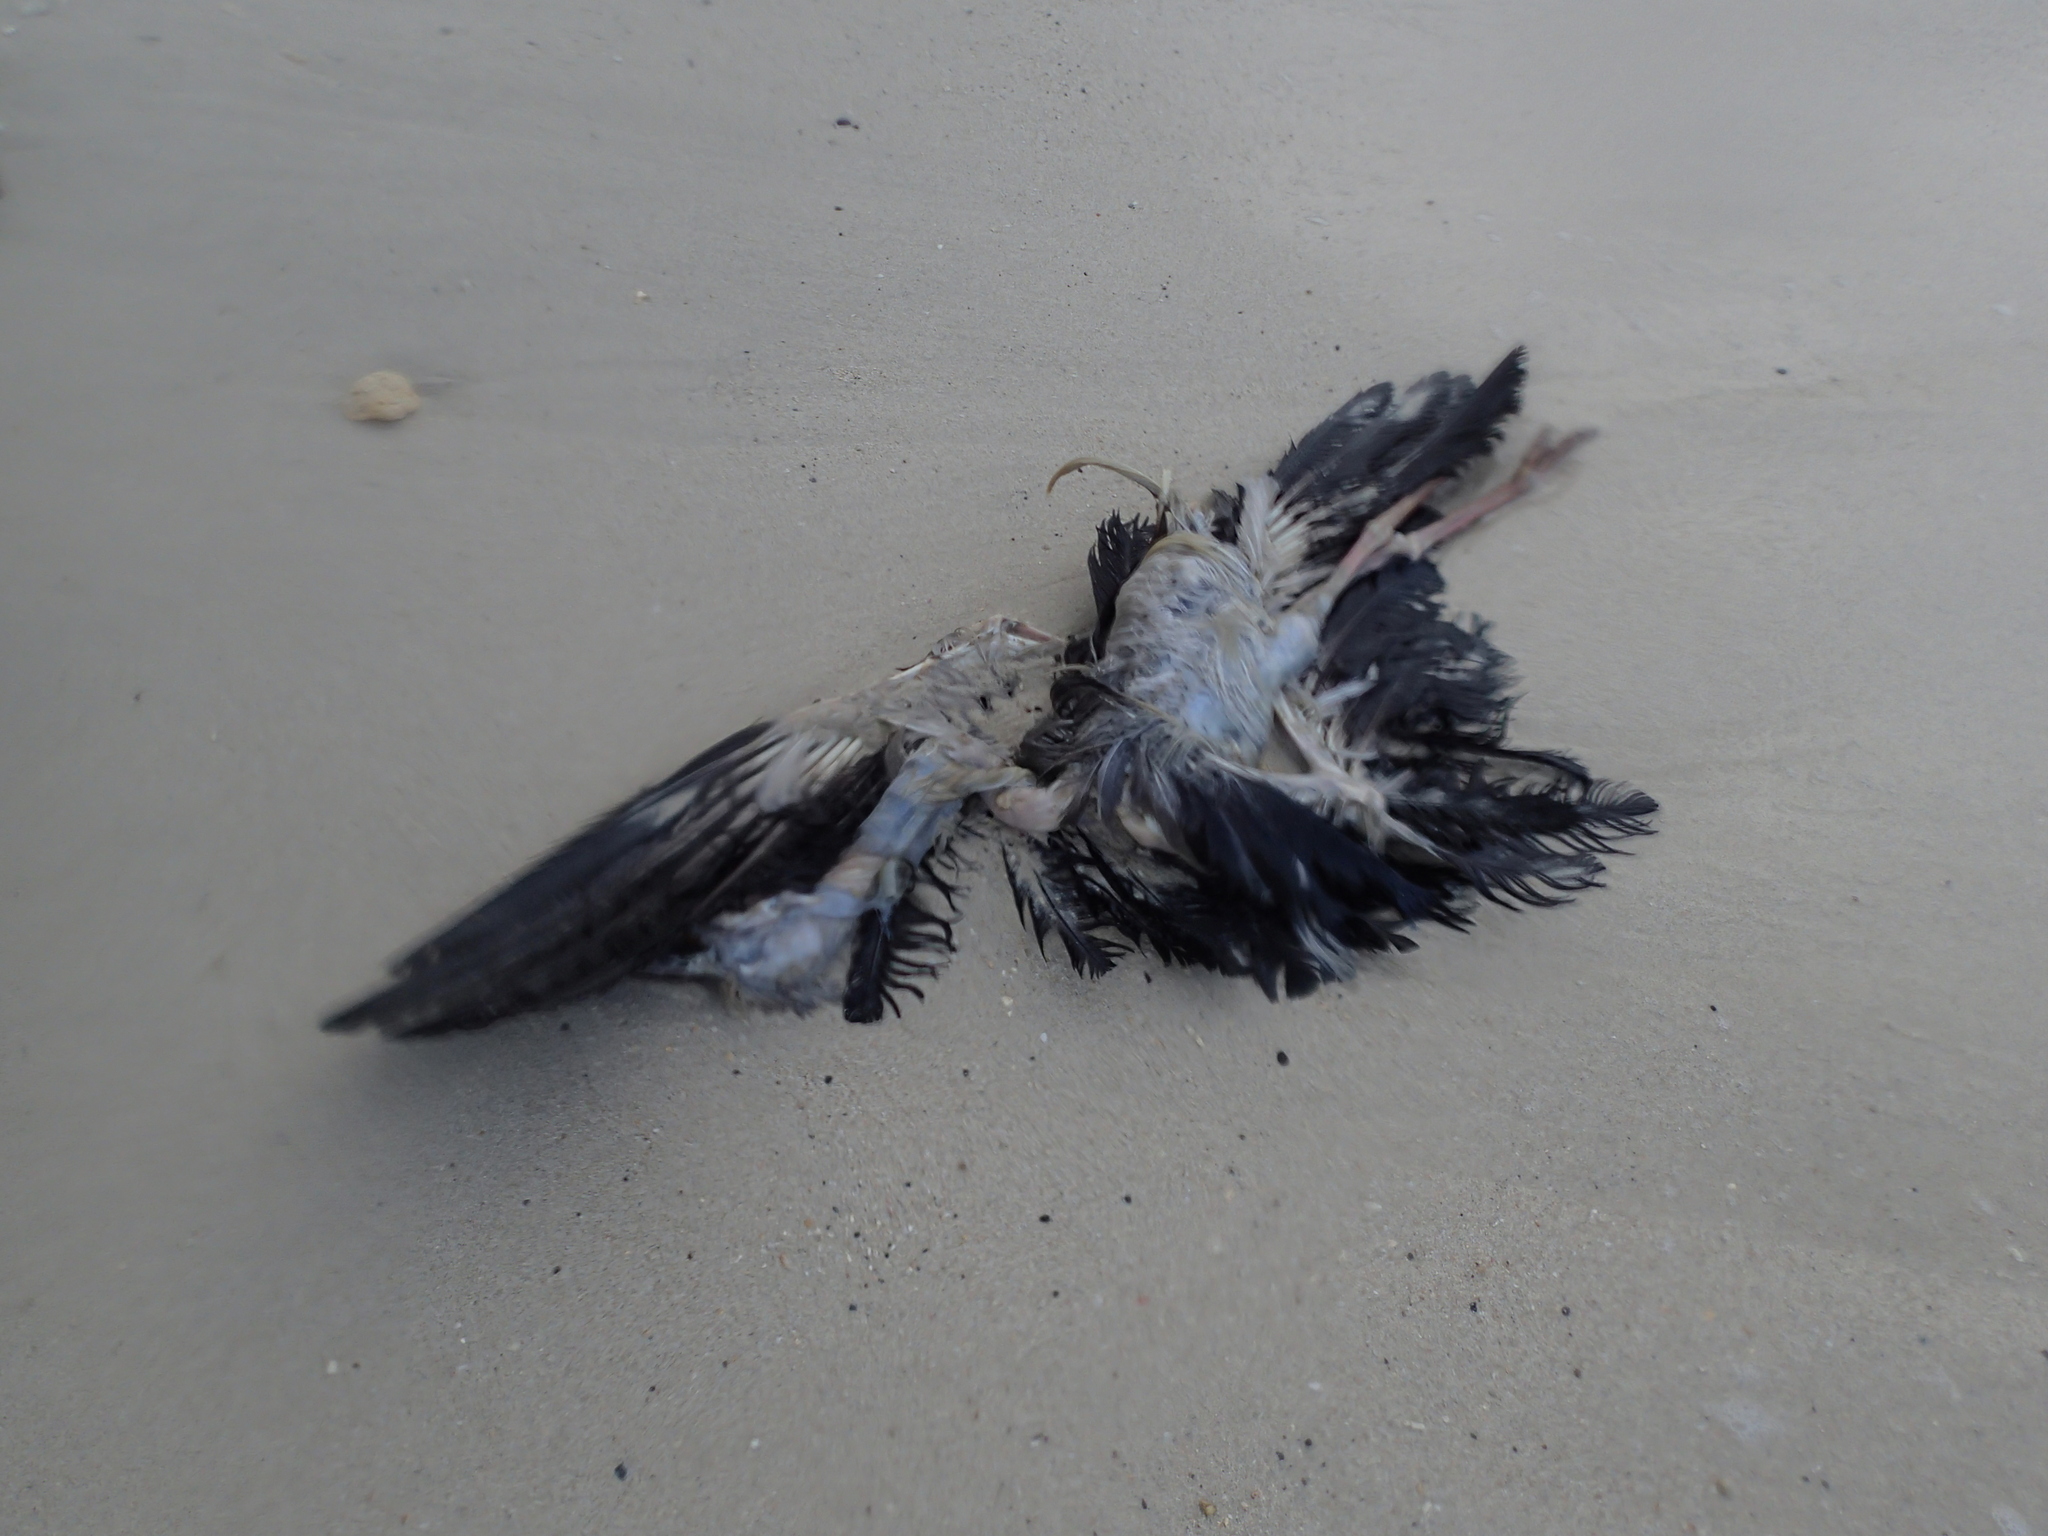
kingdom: Animalia
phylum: Chordata
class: Aves
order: Ciconiiformes
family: Ciconiidae
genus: Anastomus
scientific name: Anastomus oscitans
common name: Asian openbill
